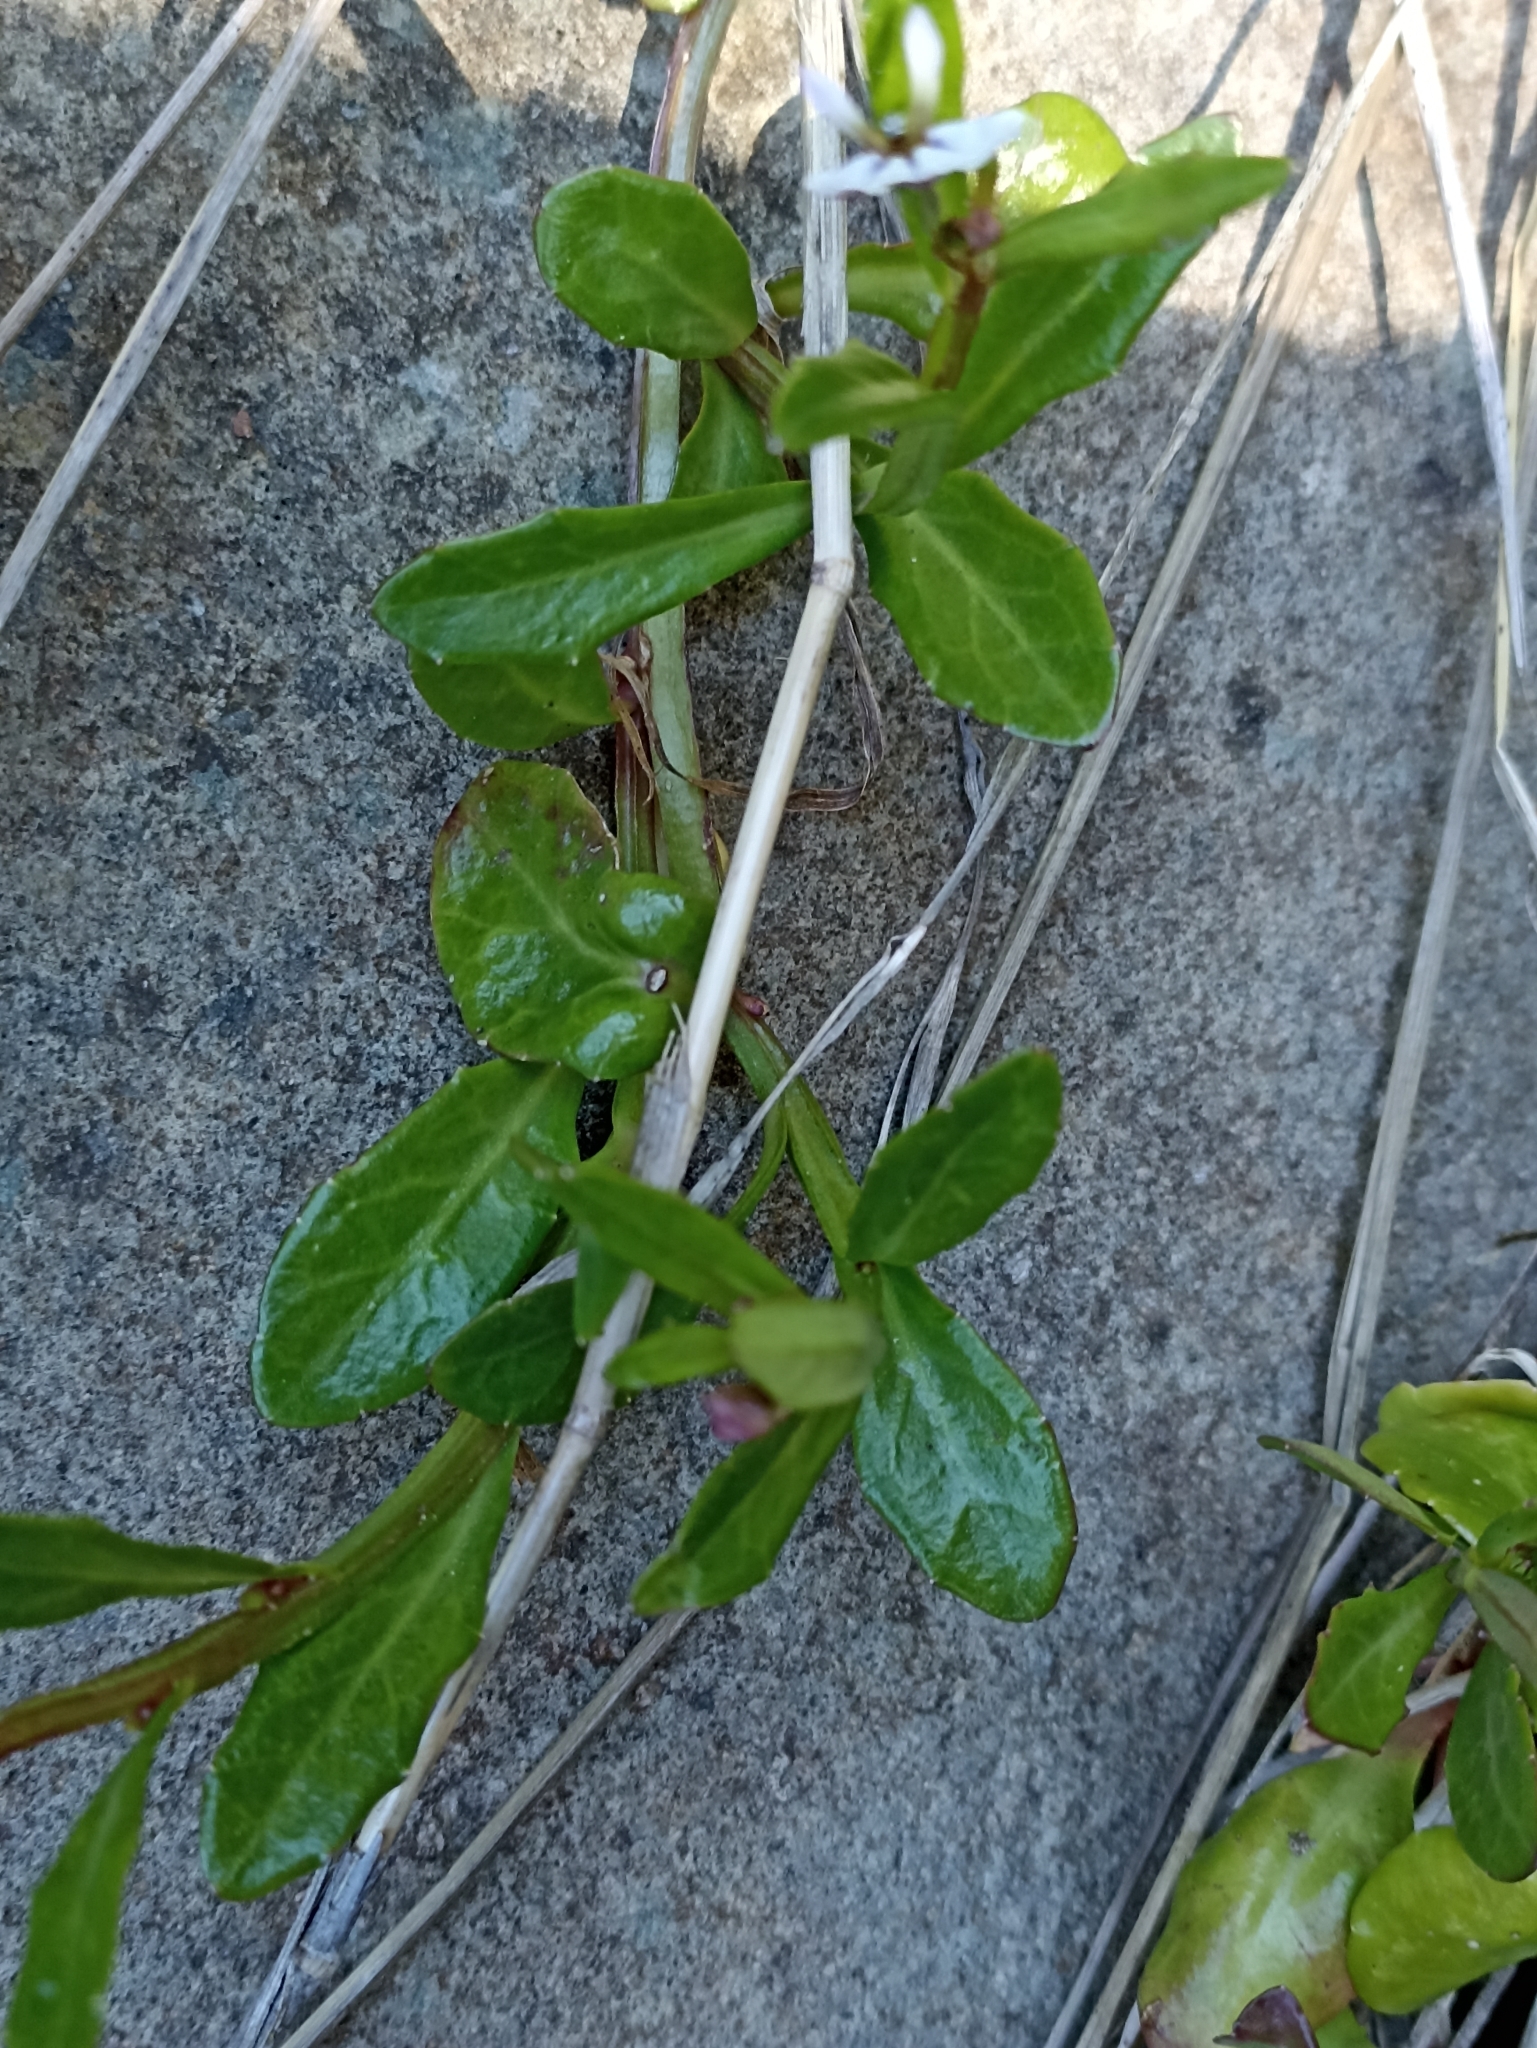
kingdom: Plantae
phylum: Tracheophyta
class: Magnoliopsida
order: Asterales
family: Campanulaceae
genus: Lobelia
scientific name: Lobelia anceps
